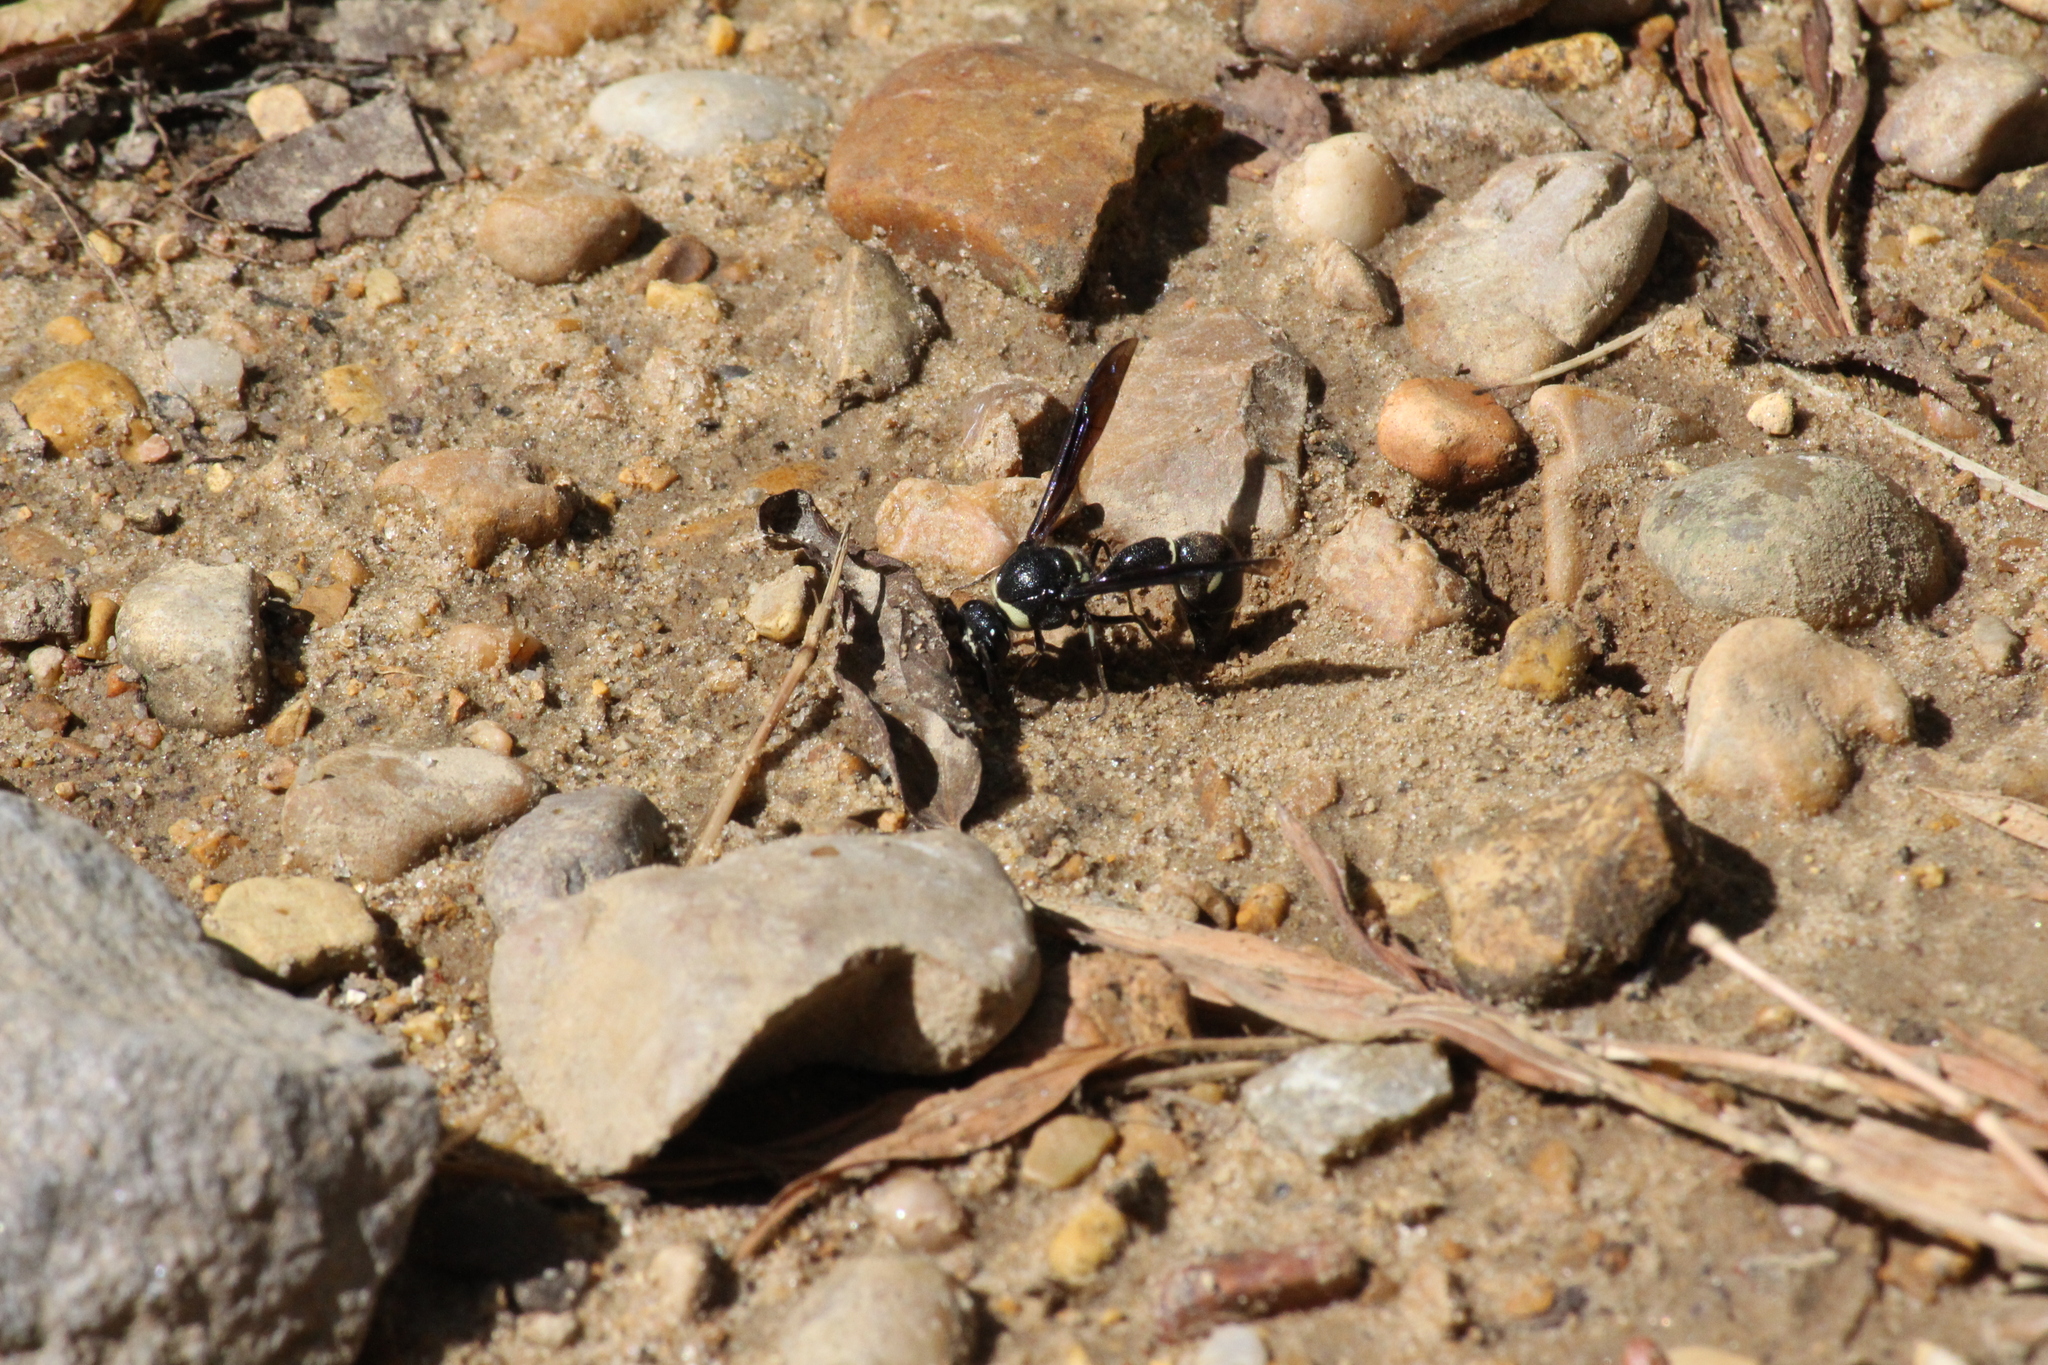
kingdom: Animalia
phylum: Arthropoda
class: Insecta
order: Hymenoptera
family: Vespidae
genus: Eumenes
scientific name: Eumenes fraternus
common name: Fraternal potter wasp
